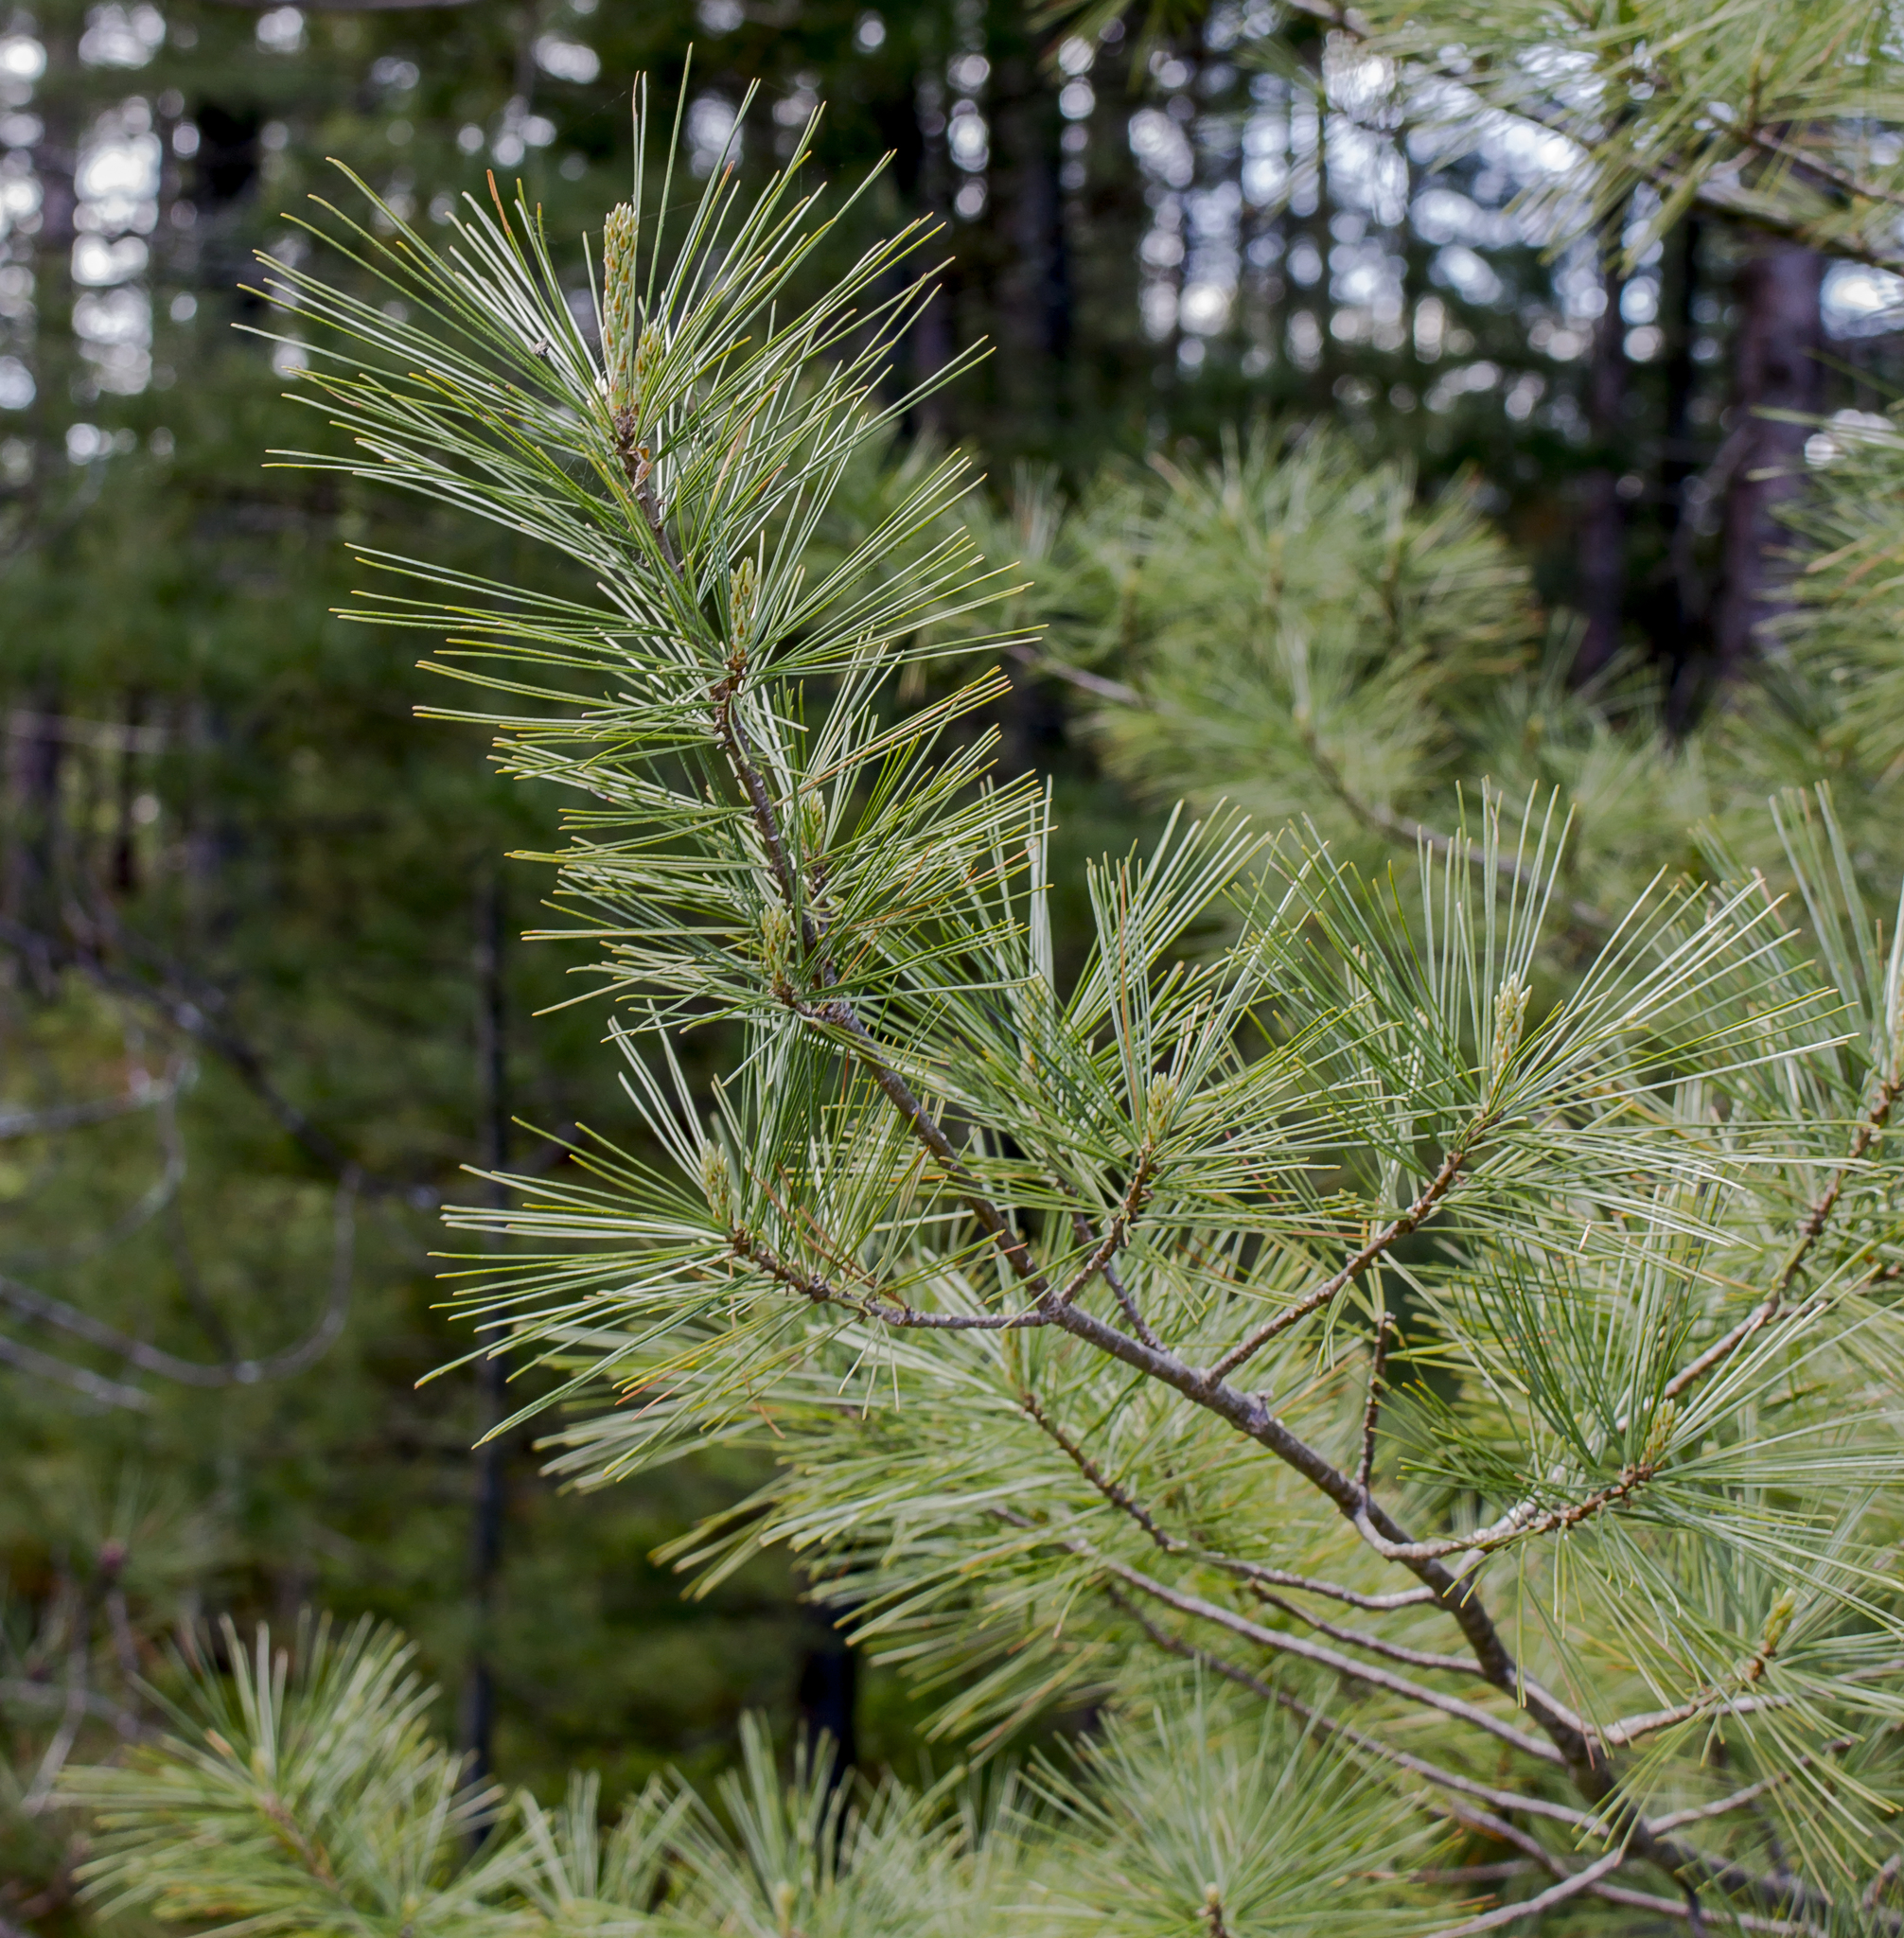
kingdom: Plantae
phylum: Tracheophyta
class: Pinopsida
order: Pinales
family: Pinaceae
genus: Pinus
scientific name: Pinus strobus
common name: Weymouth pine
